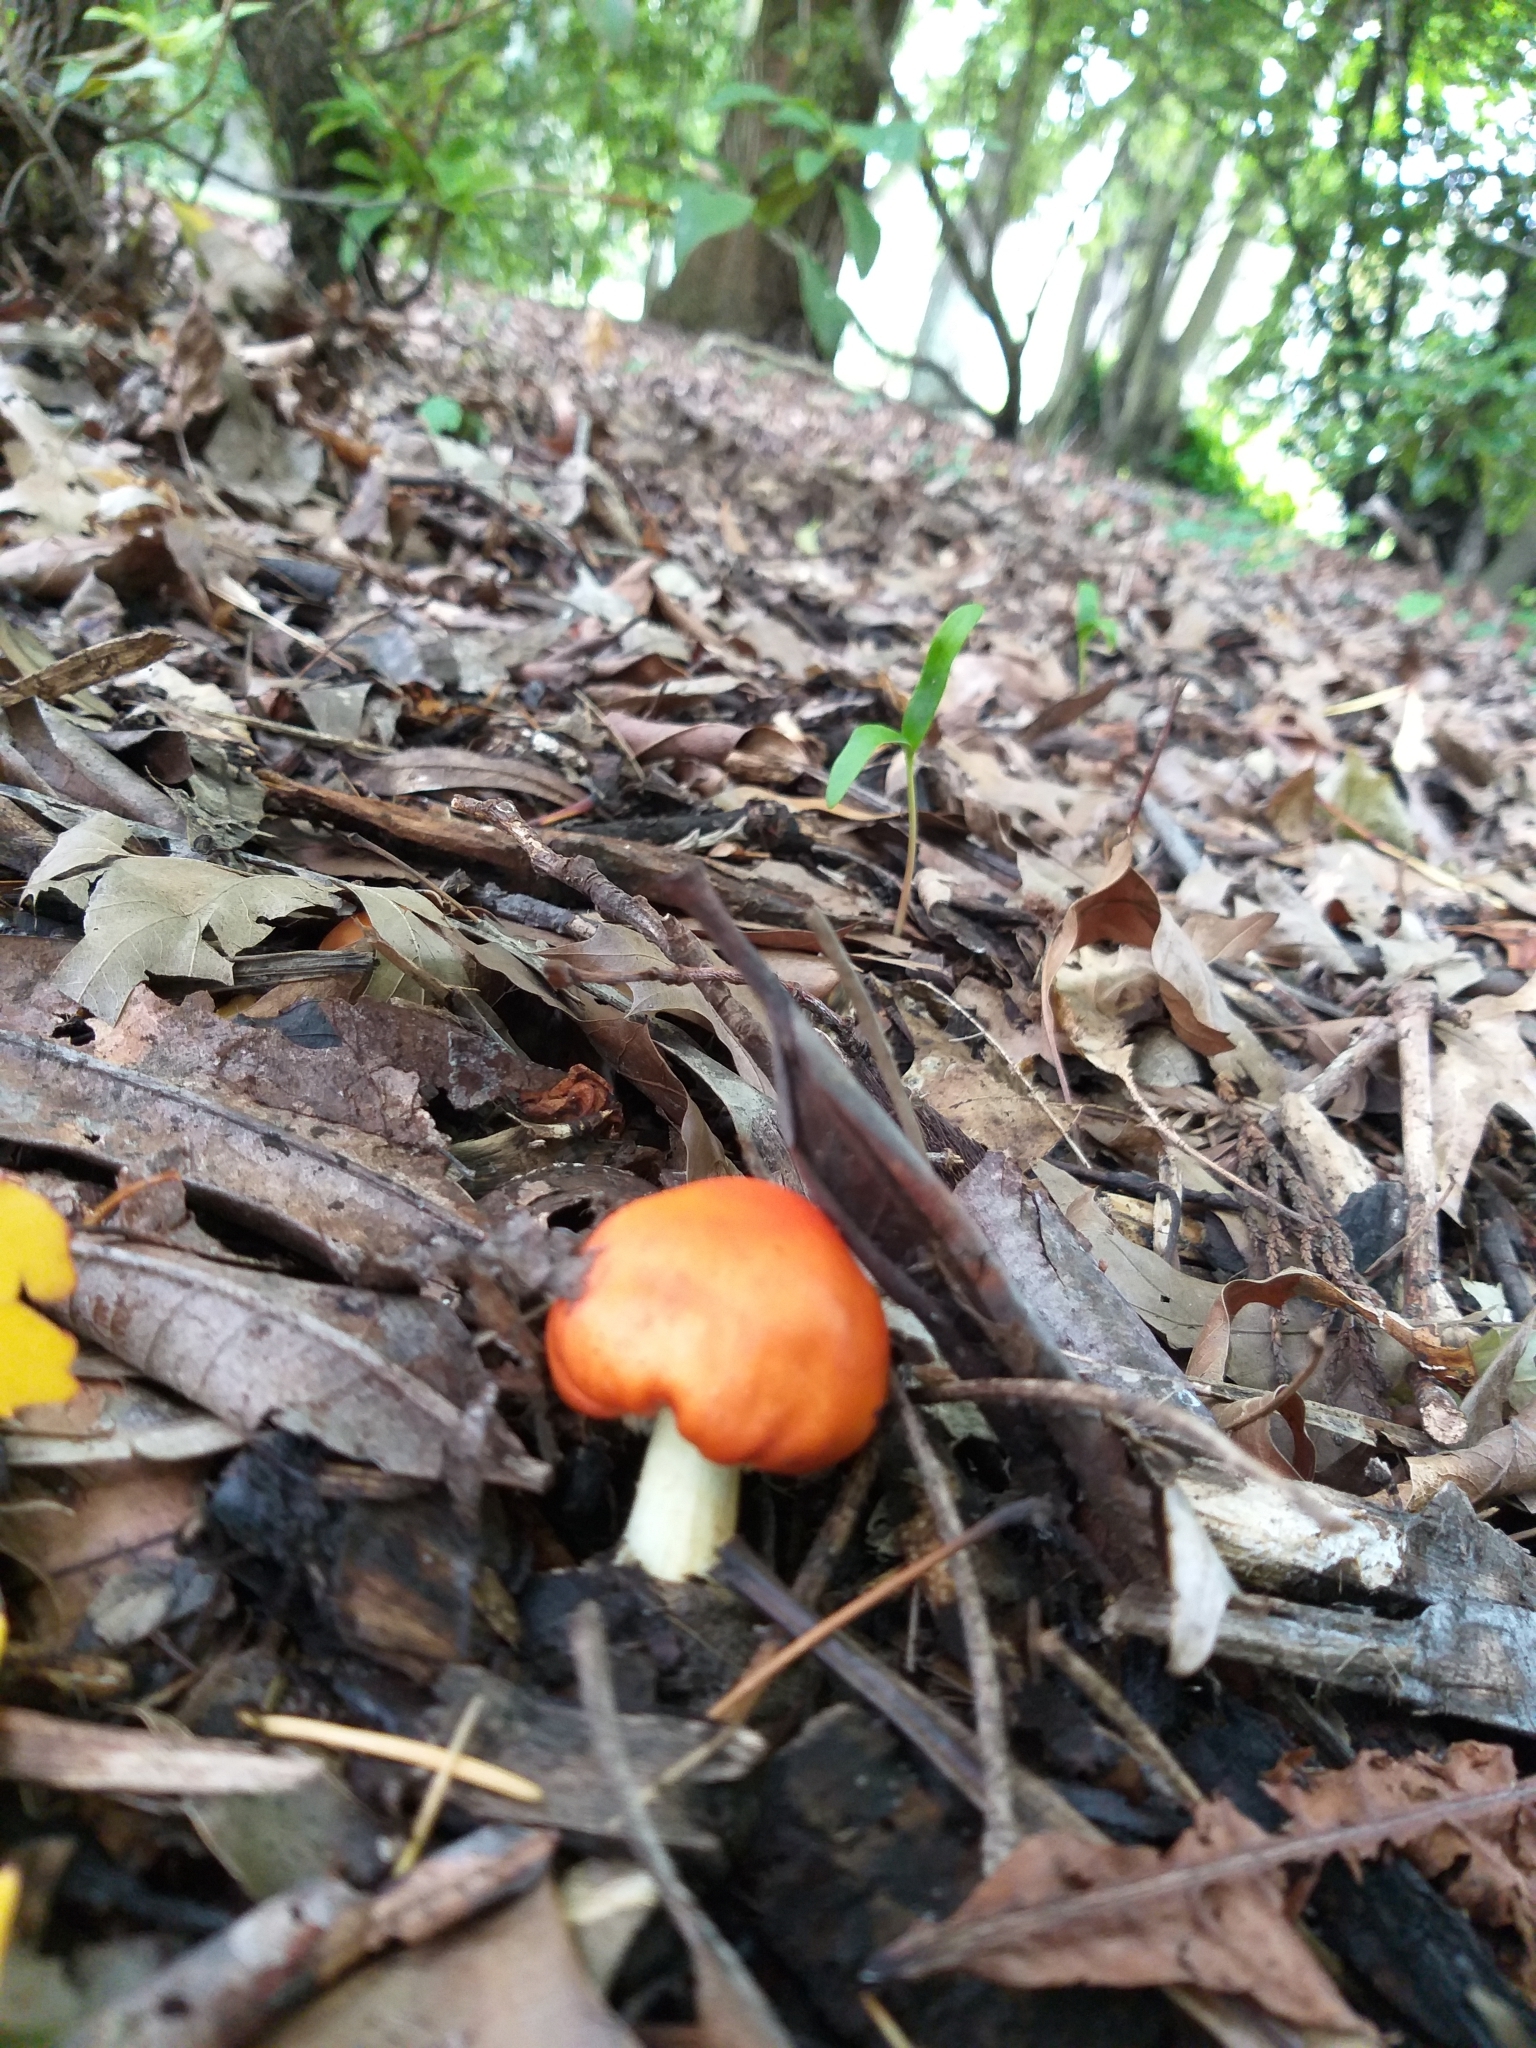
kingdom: Fungi
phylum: Basidiomycota
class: Agaricomycetes
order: Agaricales
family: Strophariaceae
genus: Leratiomyces
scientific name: Leratiomyces erythrocephalus
